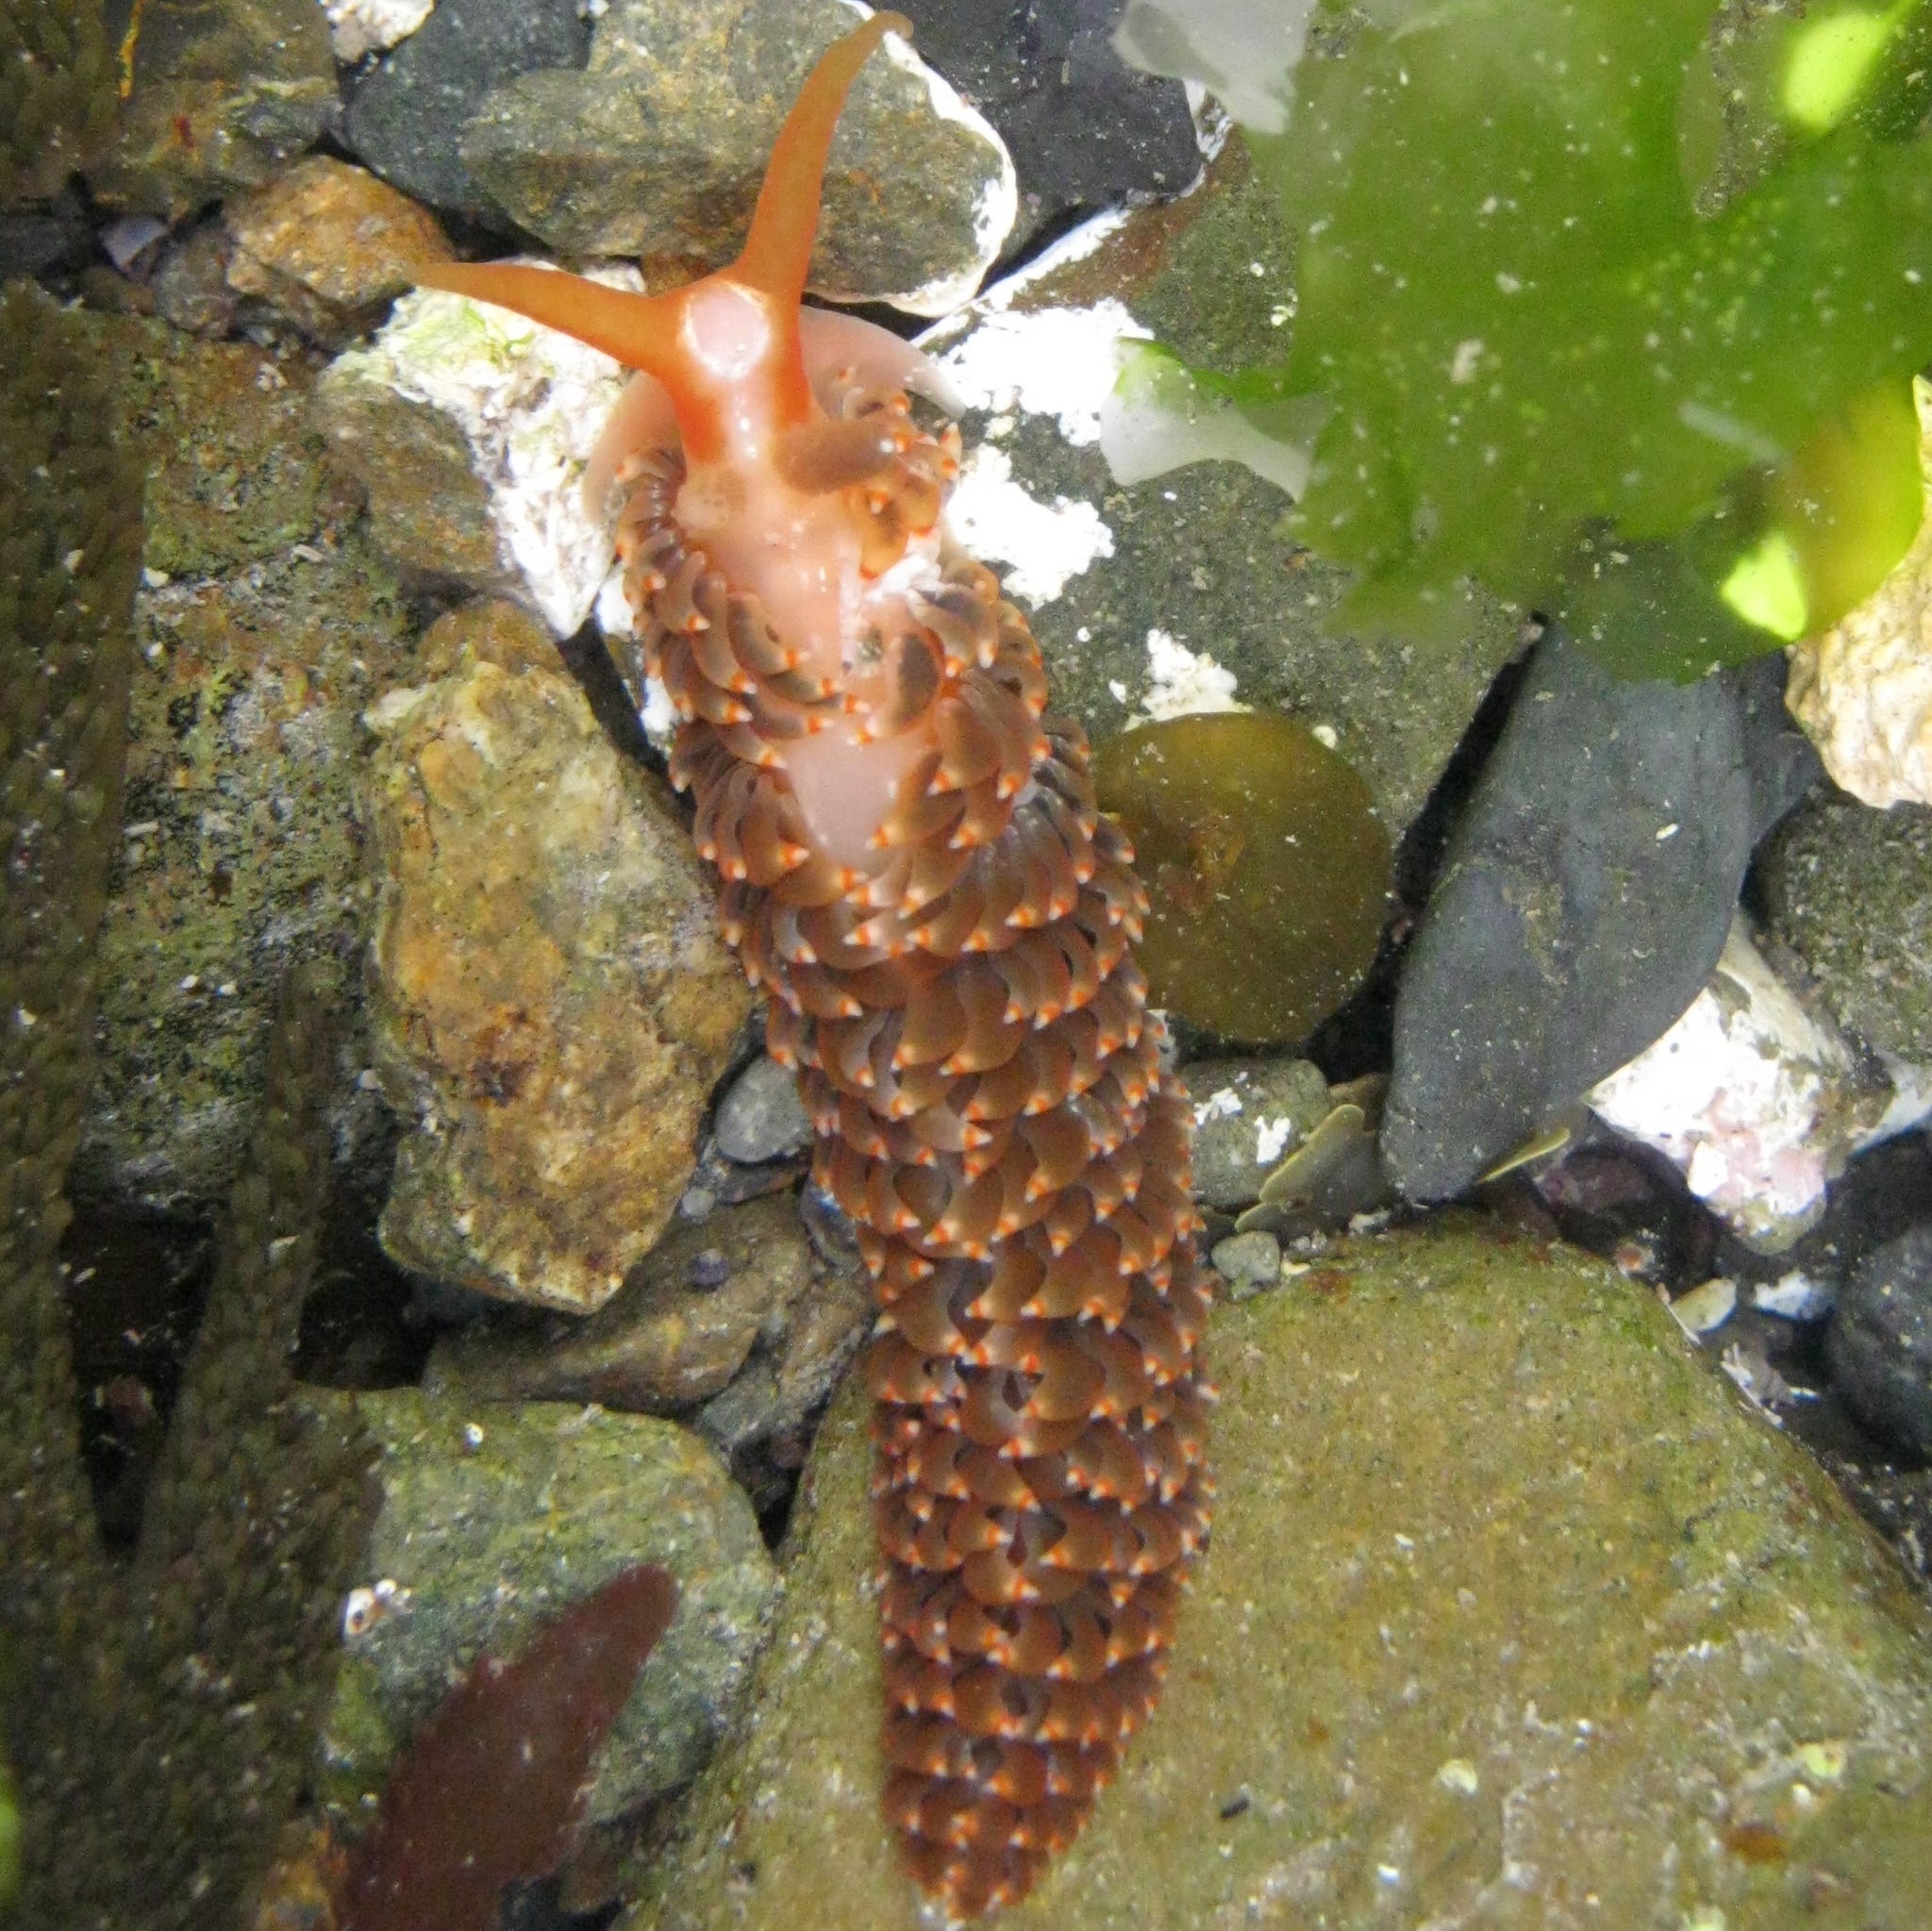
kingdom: Animalia
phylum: Mollusca
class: Gastropoda
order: Nudibranchia
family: Aeolidiidae
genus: Baeolidia
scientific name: Baeolidia australis
